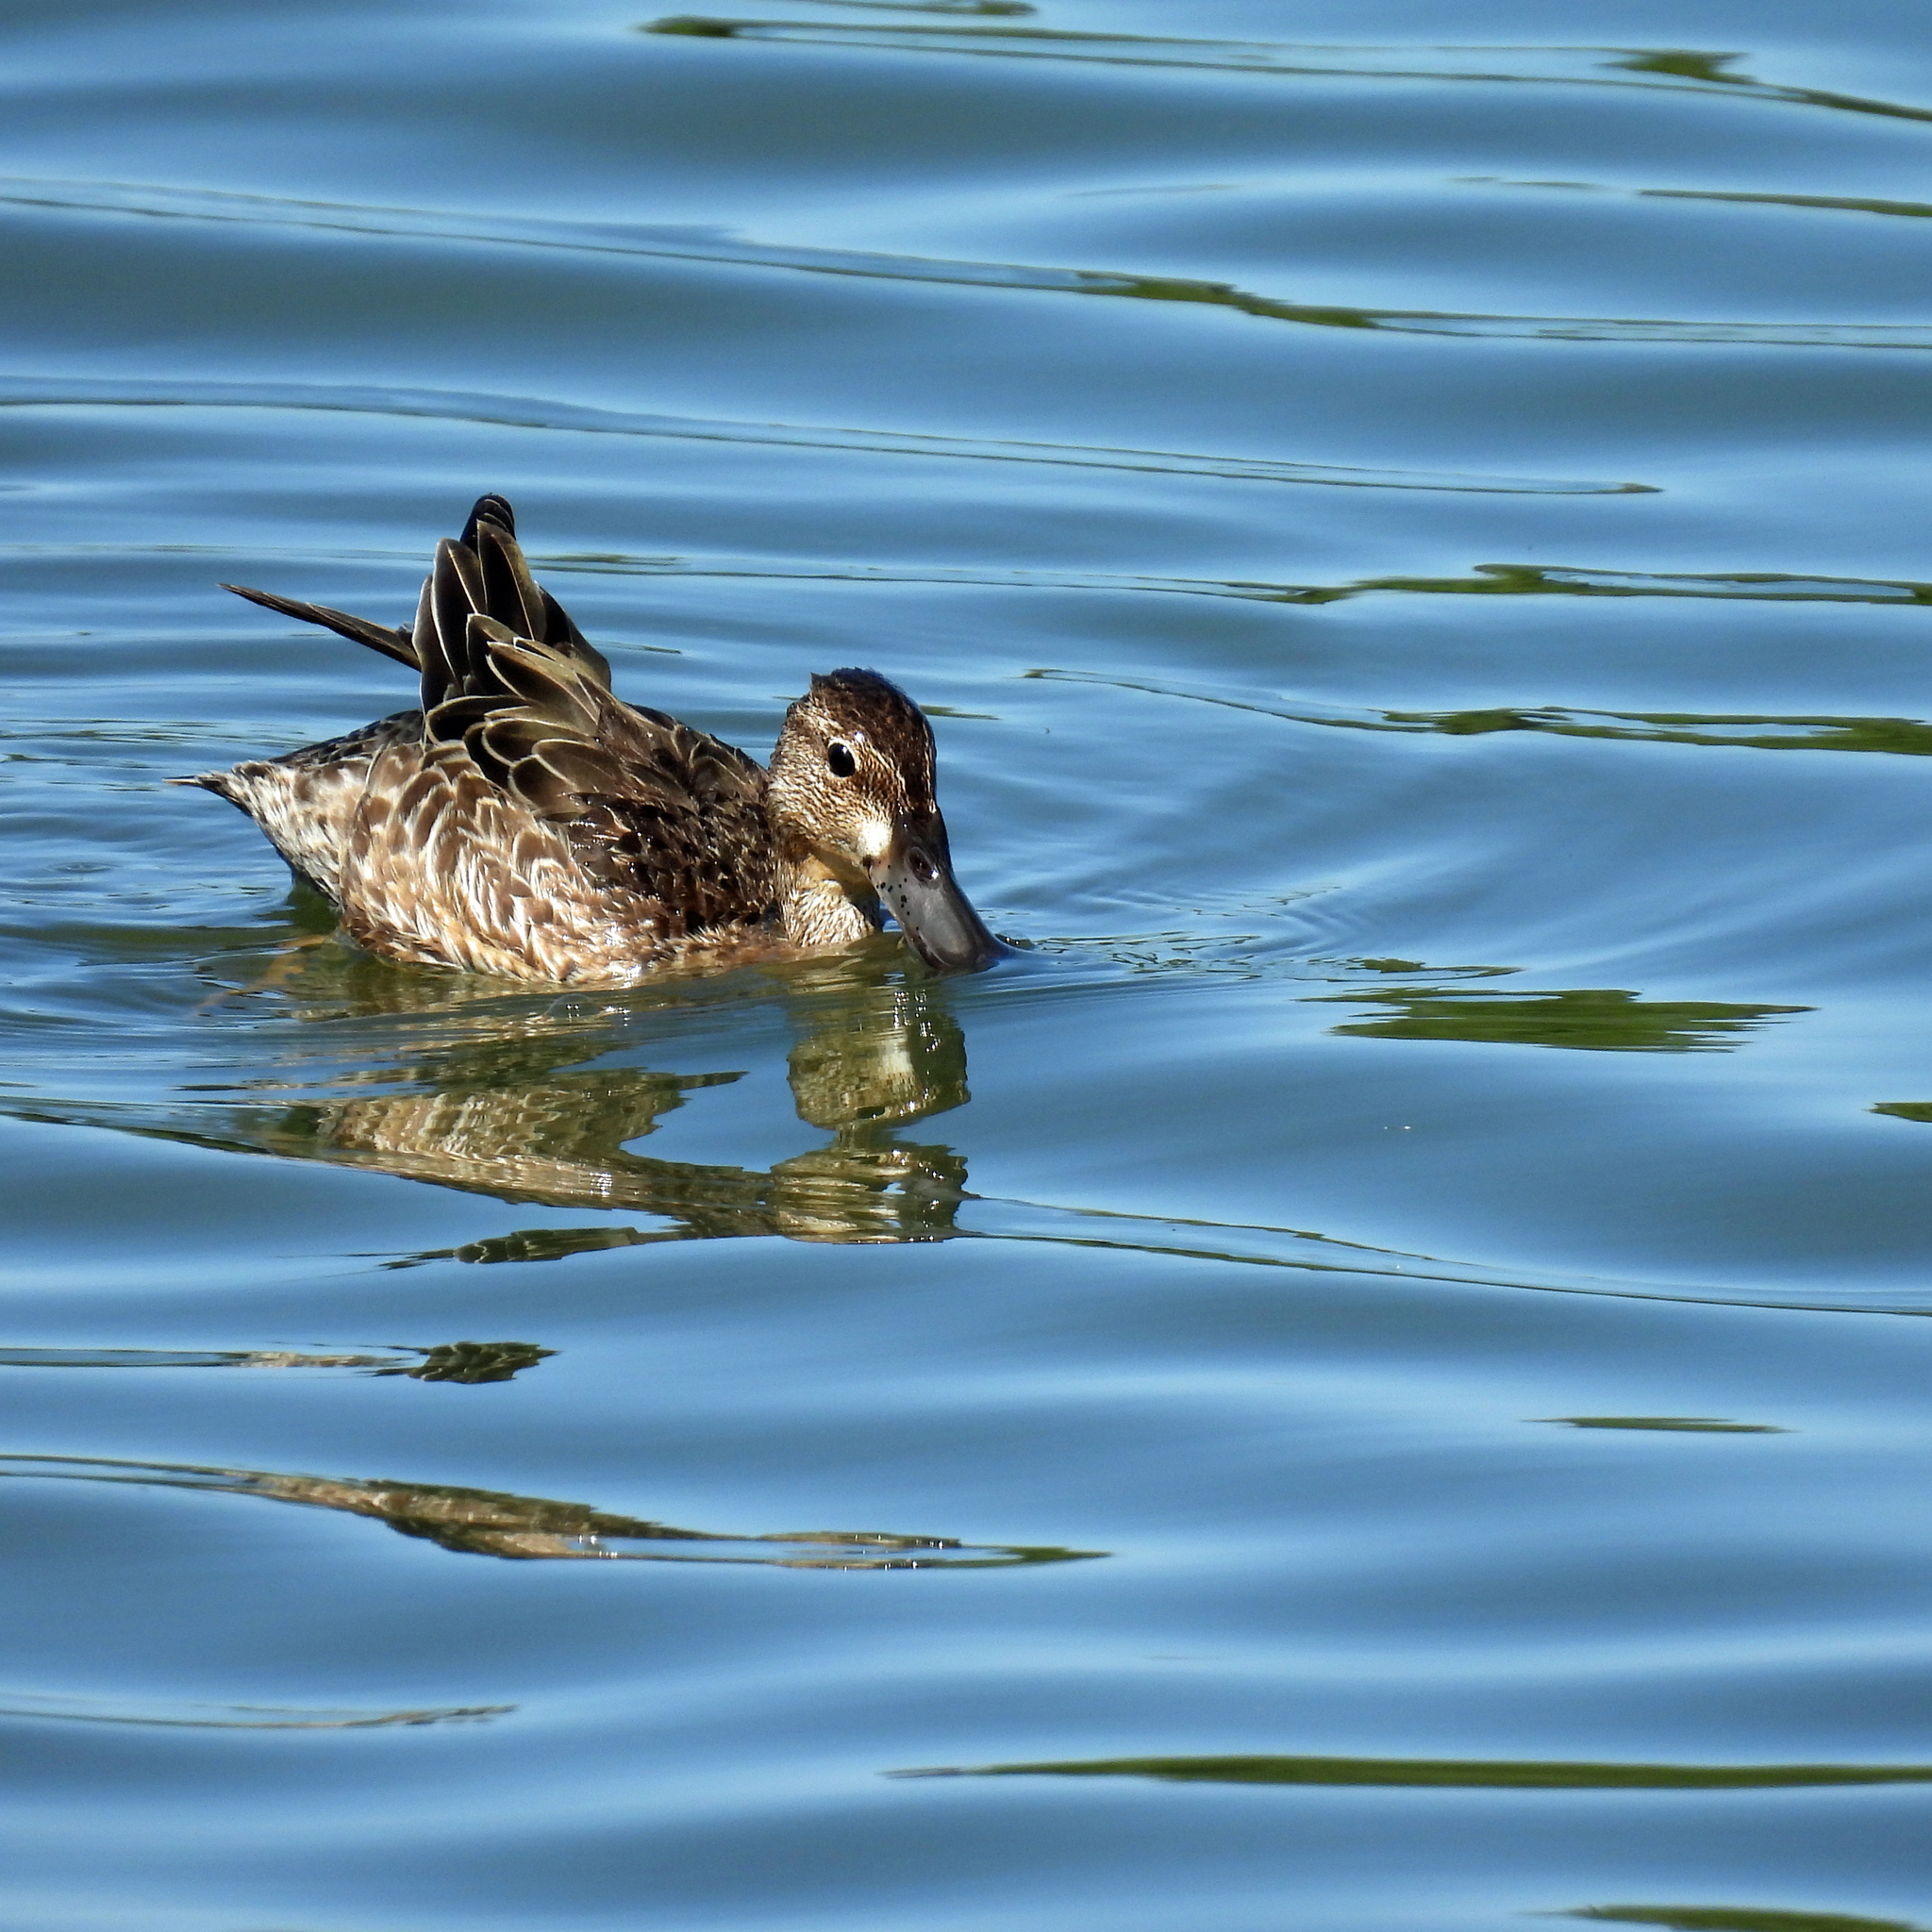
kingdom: Animalia
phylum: Chordata
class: Aves
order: Anseriformes
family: Anatidae
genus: Spatula
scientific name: Spatula discors
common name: Blue-winged teal
